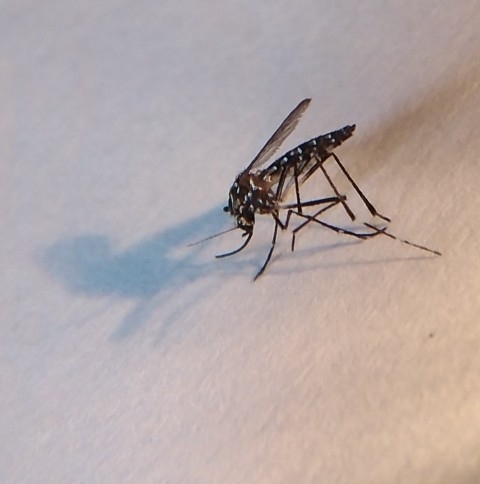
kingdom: Animalia
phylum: Arthropoda
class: Insecta
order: Diptera
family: Culicidae
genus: Aedes
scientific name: Aedes aegypti
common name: Yellow fever mosquito
